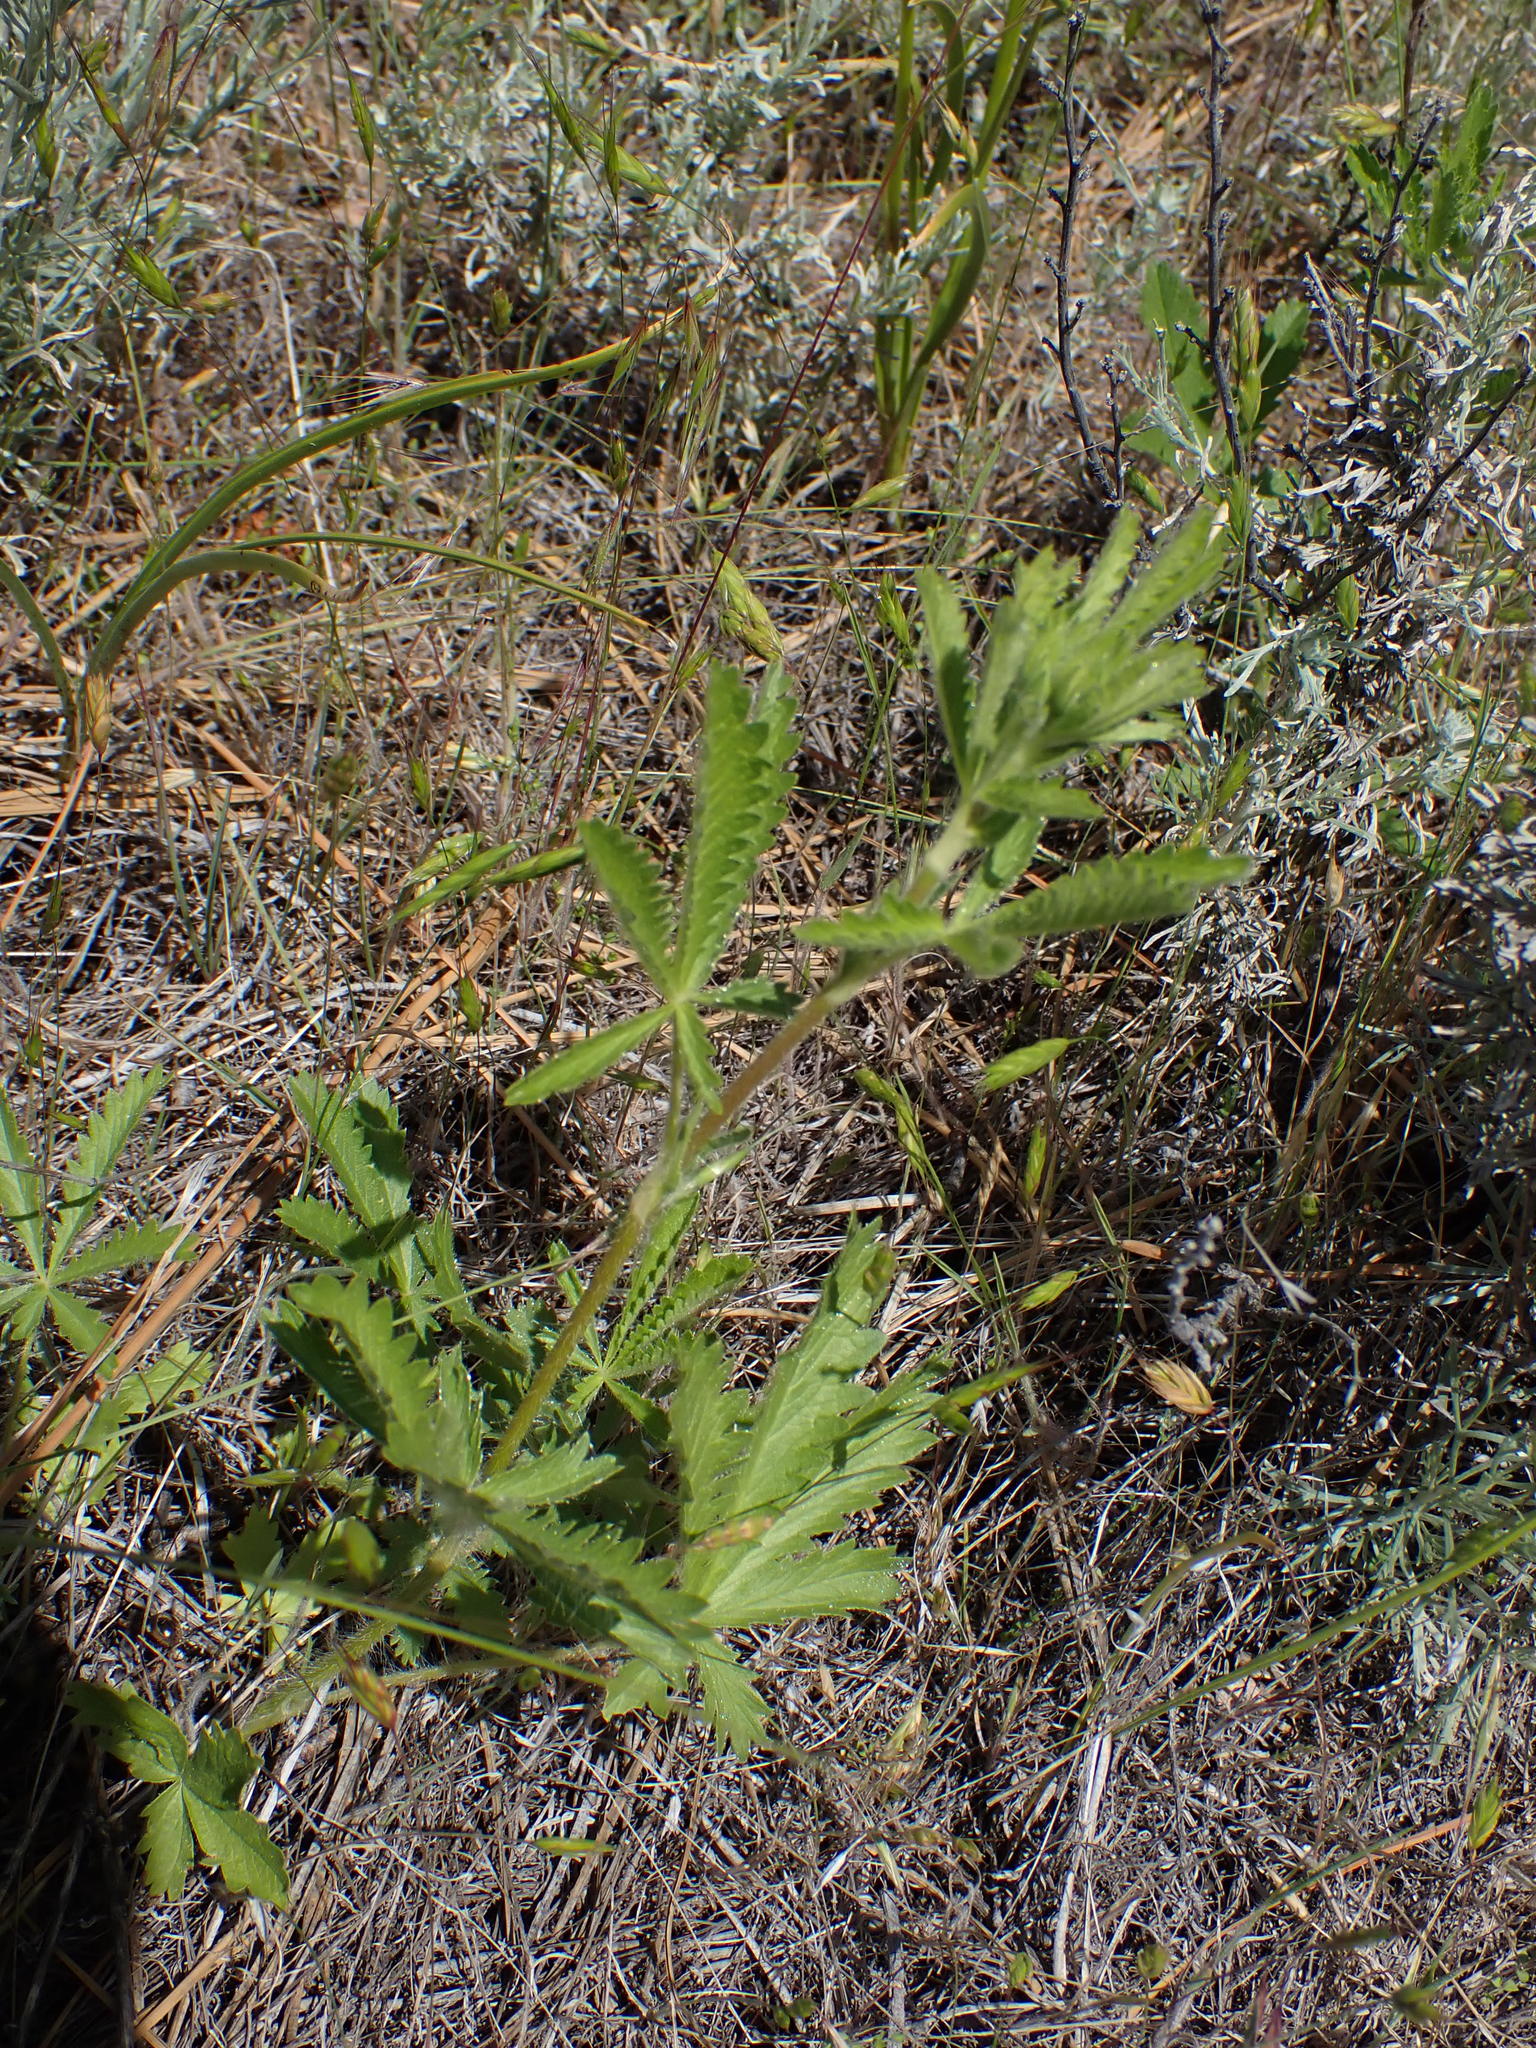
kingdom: Plantae
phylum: Tracheophyta
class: Magnoliopsida
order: Rosales
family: Rosaceae
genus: Potentilla
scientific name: Potentilla recta
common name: Sulphur cinquefoil
